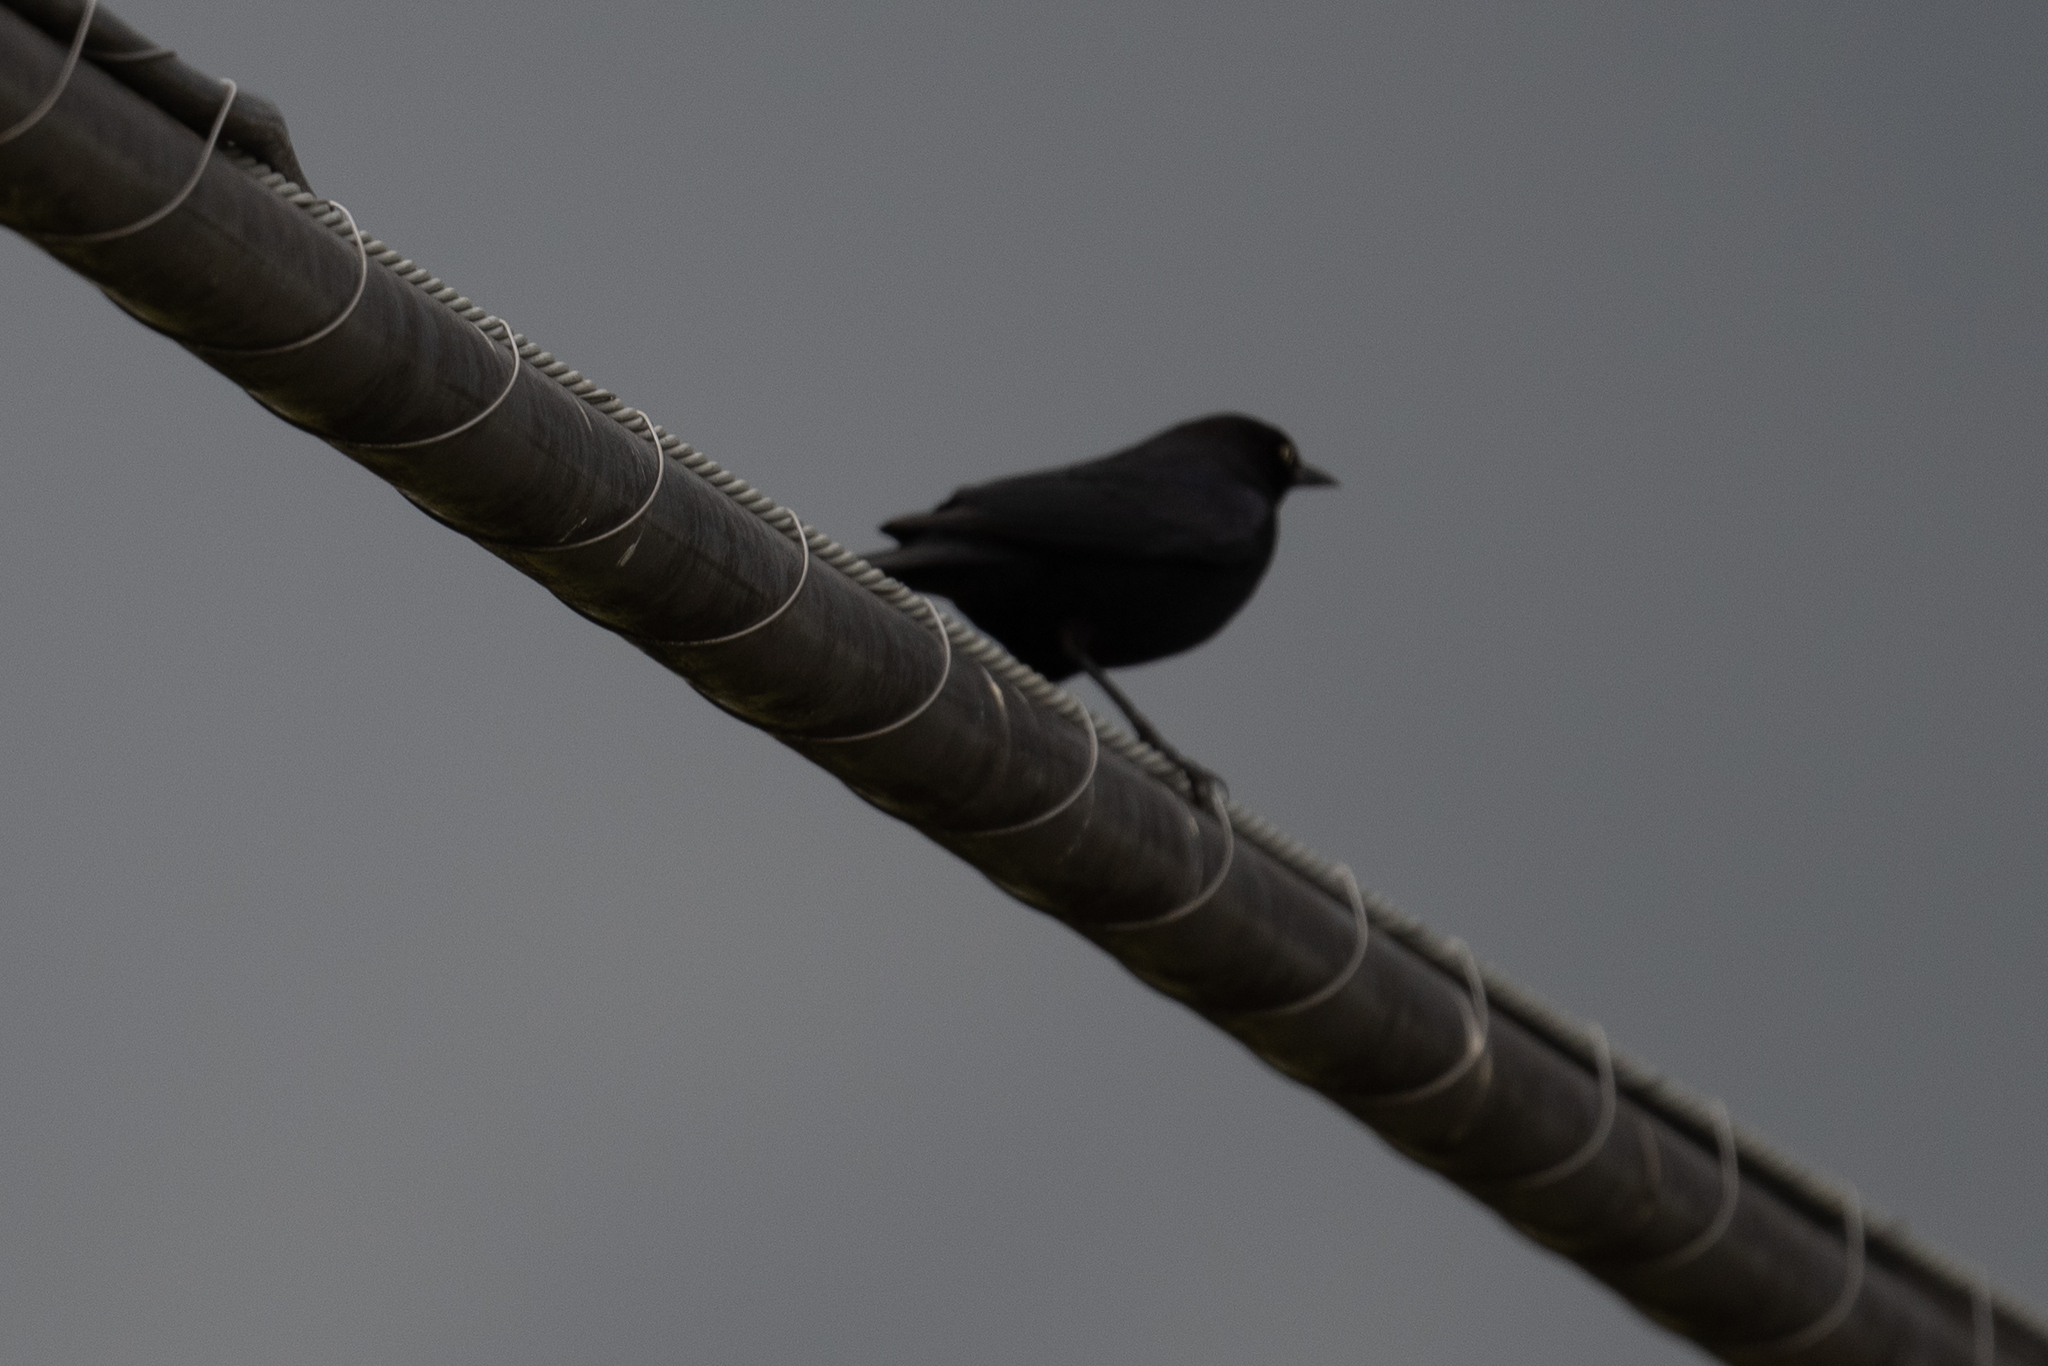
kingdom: Animalia
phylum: Chordata
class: Aves
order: Passeriformes
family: Icteridae
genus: Euphagus
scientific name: Euphagus cyanocephalus
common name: Brewer's blackbird
